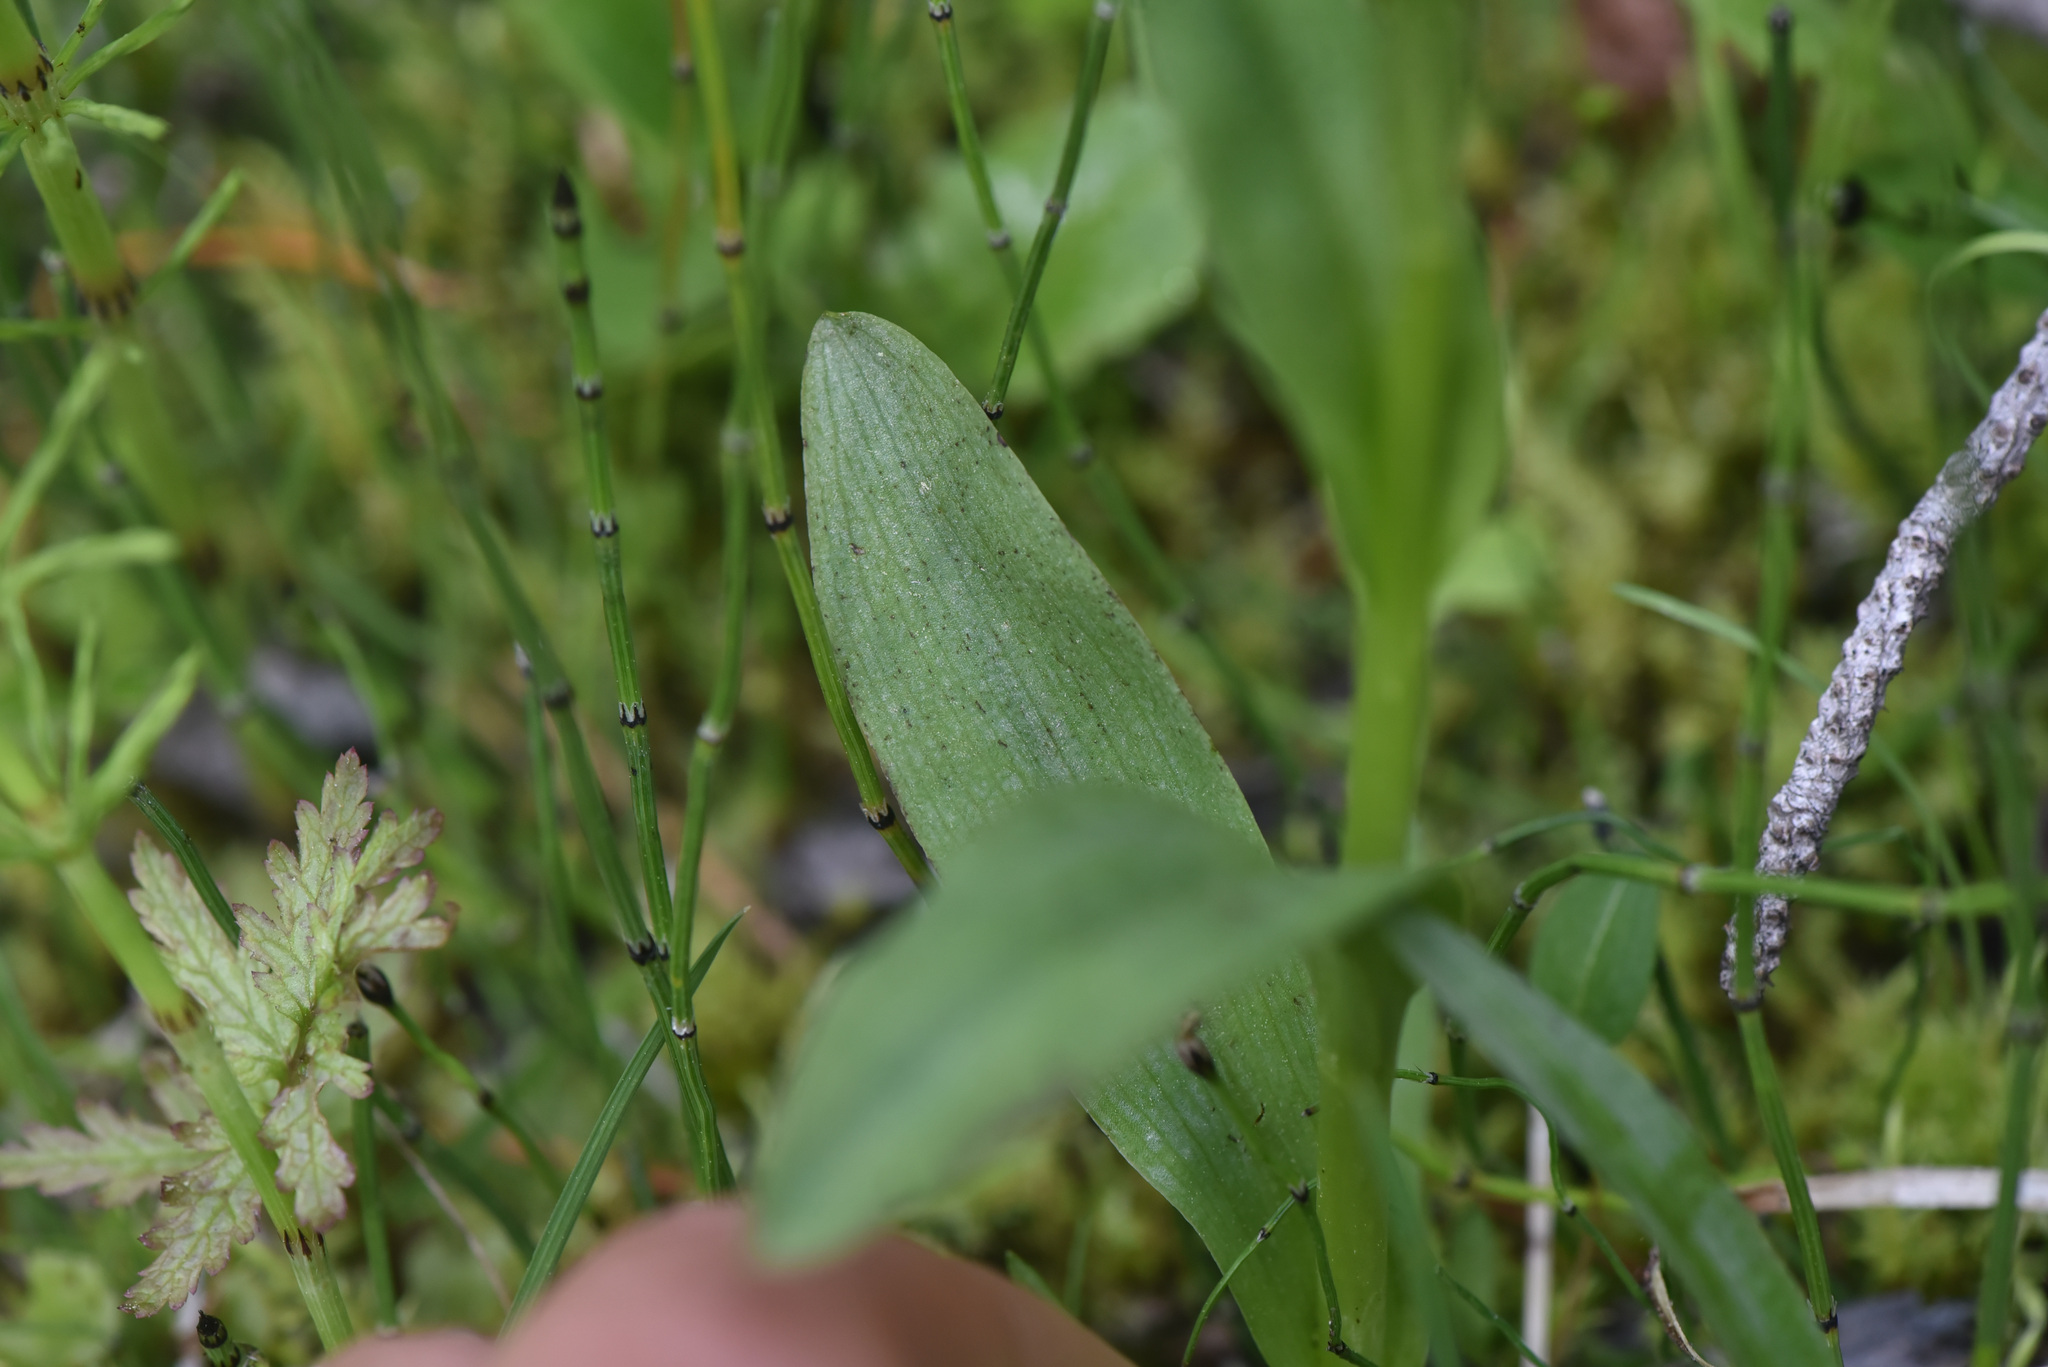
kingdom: Plantae
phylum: Tracheophyta
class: Liliopsida
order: Asparagales
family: Orchidaceae
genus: Dactylorhiza
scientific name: Dactylorhiza viridis
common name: Longbract frog orchid
